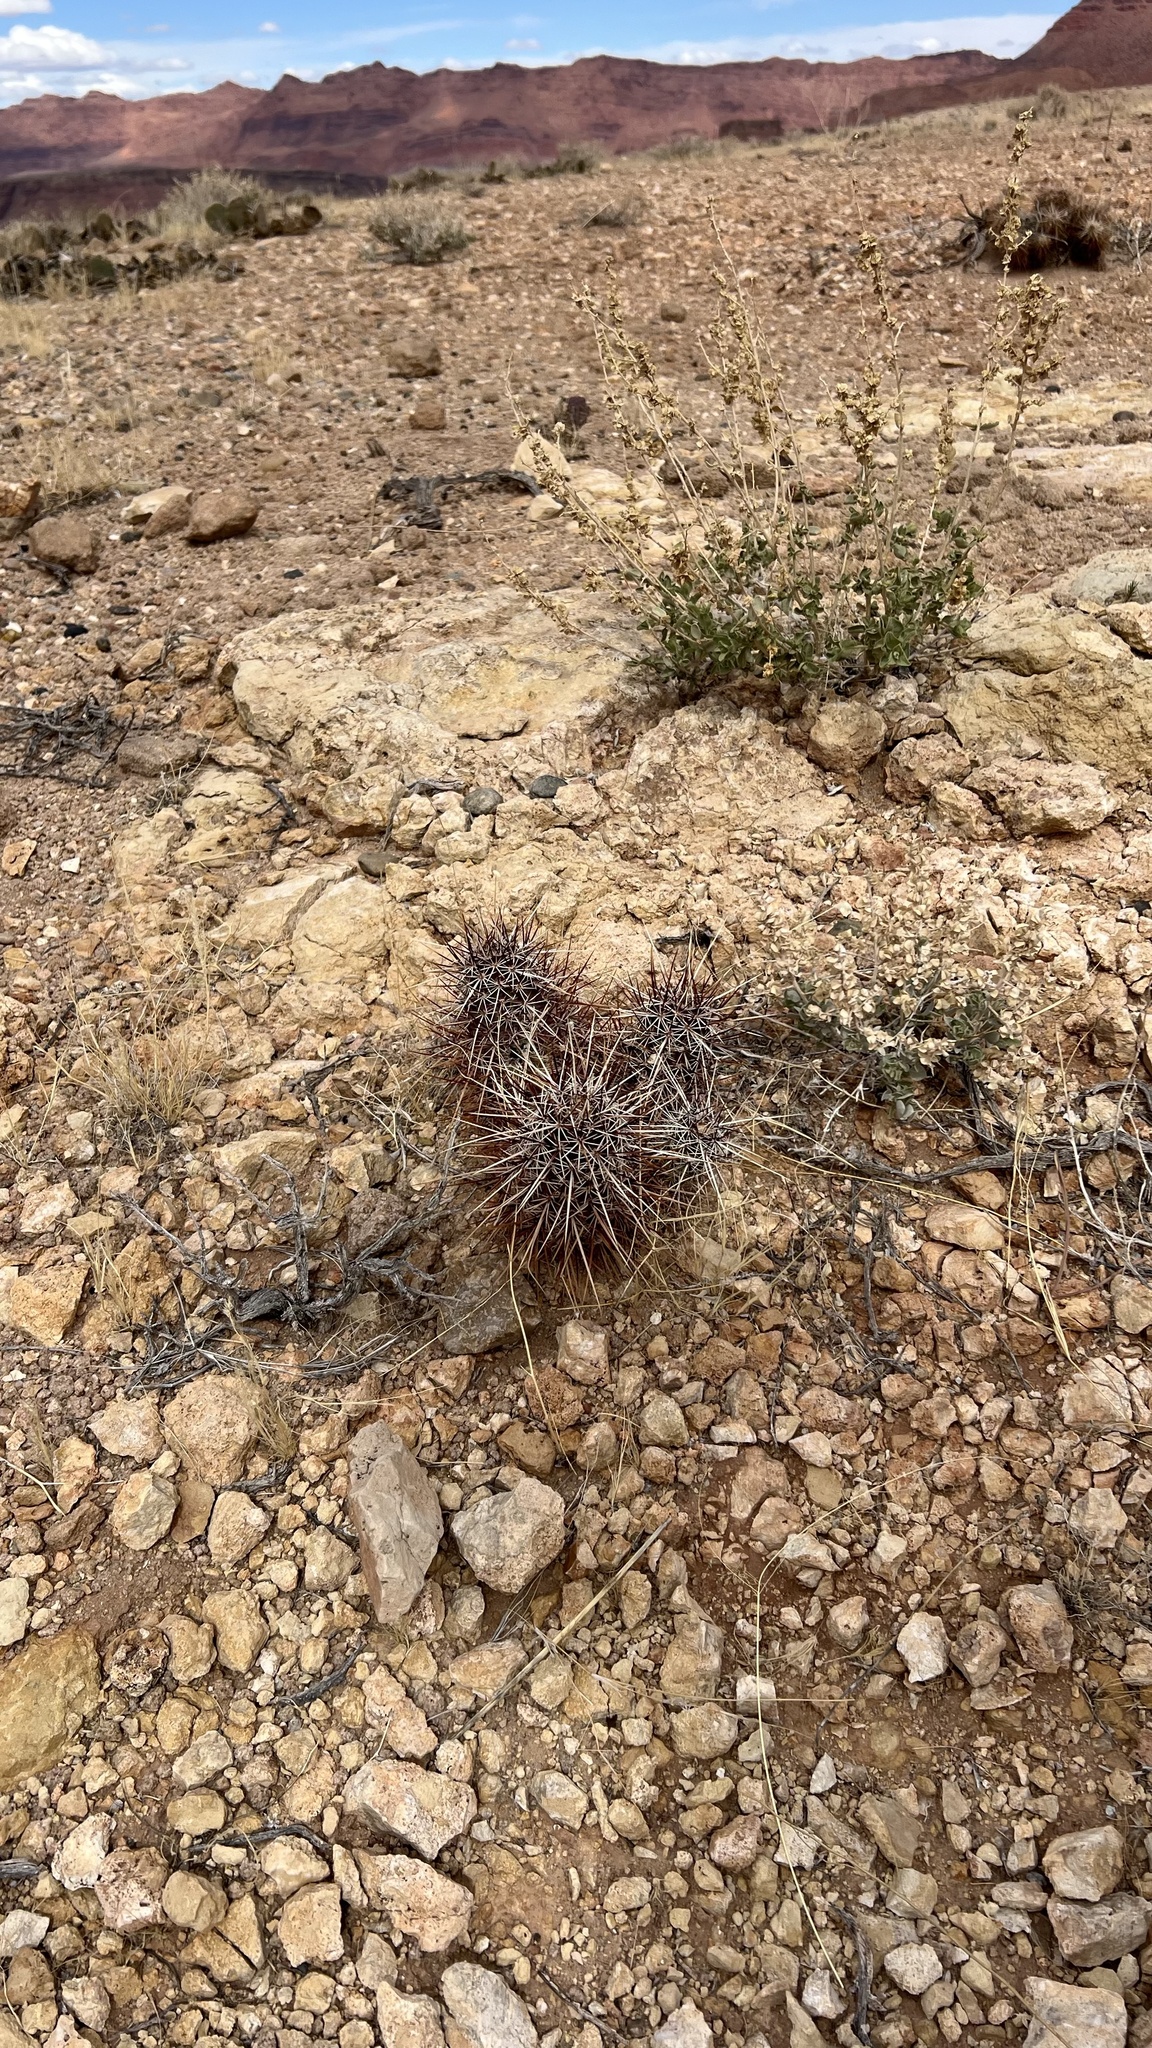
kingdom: Plantae
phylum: Tracheophyta
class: Magnoliopsida
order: Caryophyllales
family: Cactaceae
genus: Echinocereus
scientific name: Echinocereus engelmannii
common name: Engelmann's hedgehog cactus
